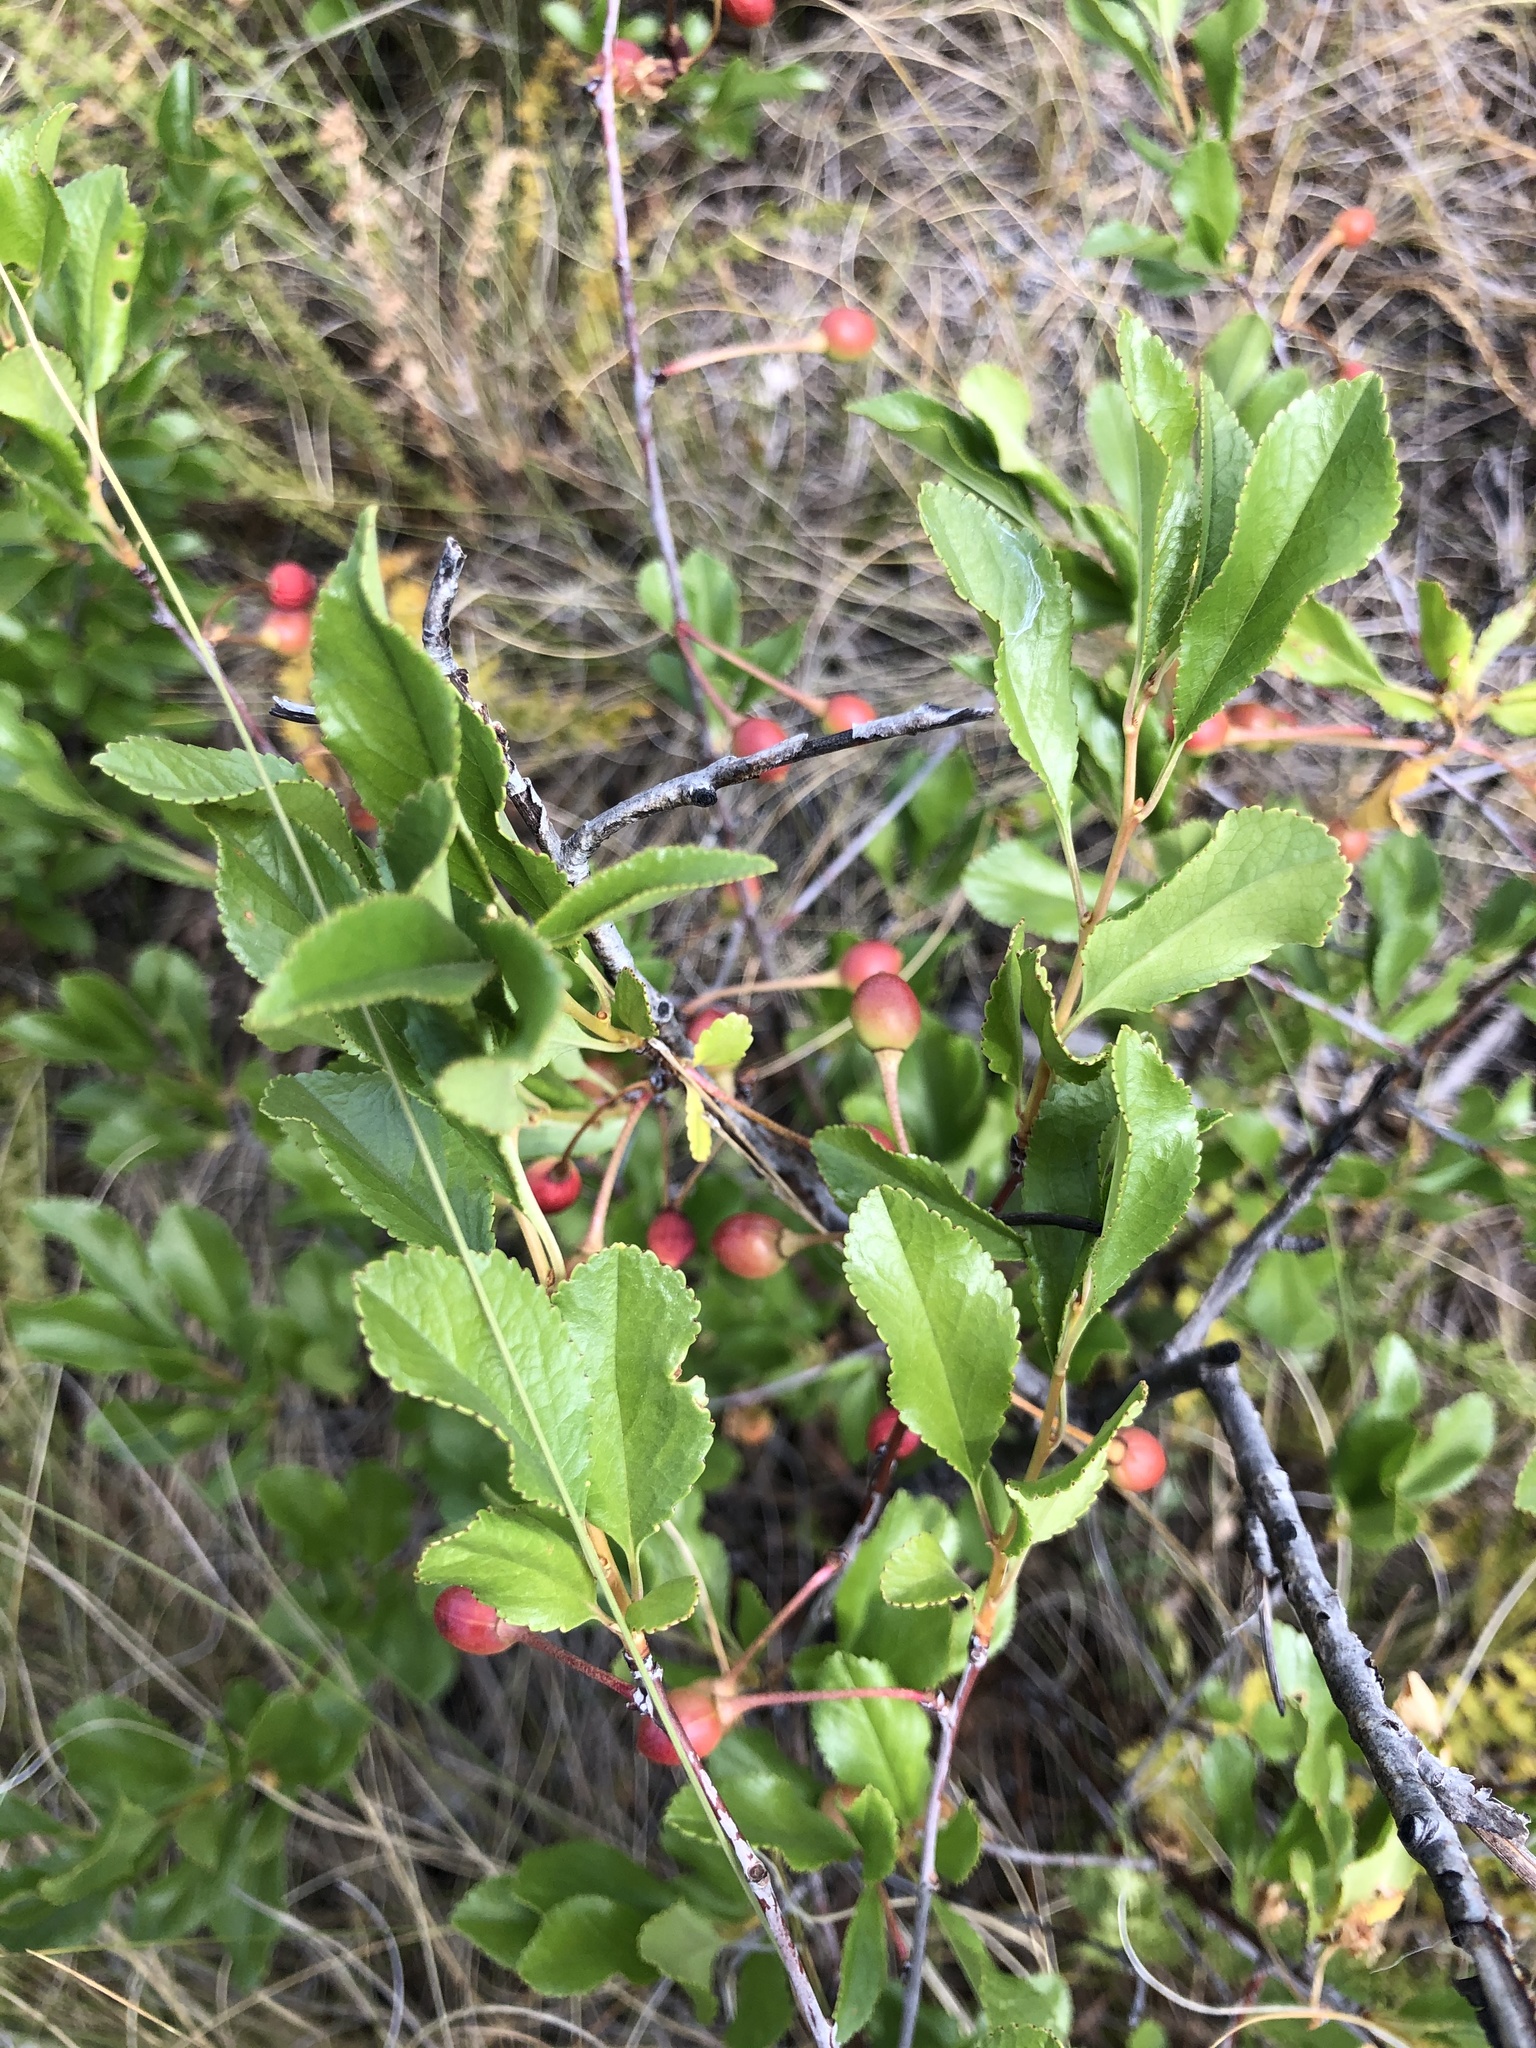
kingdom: Plantae
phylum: Tracheophyta
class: Magnoliopsida
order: Rosales
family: Rosaceae
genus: Prunus
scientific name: Prunus fruticosa
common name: European dwarf cherry
